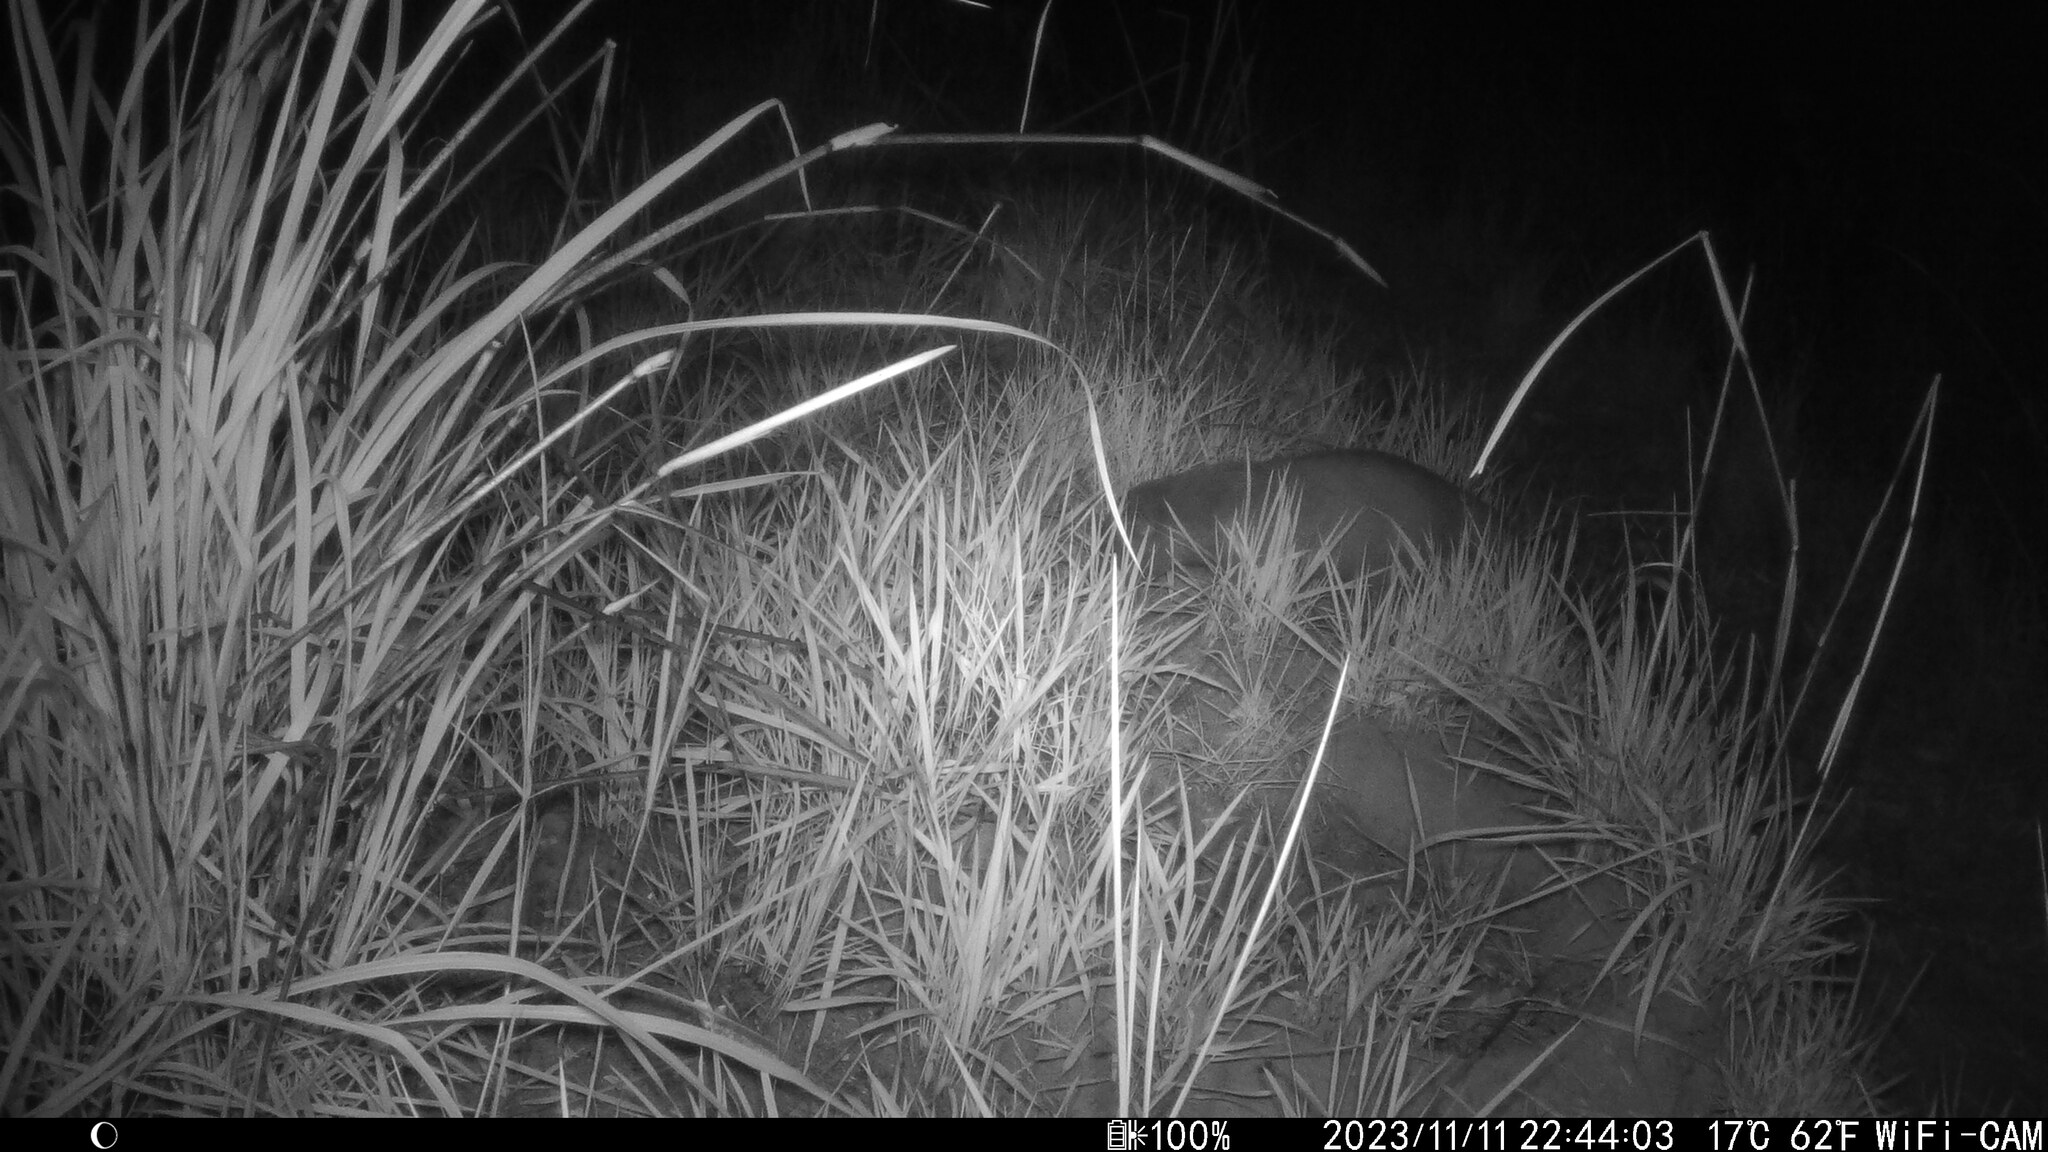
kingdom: Animalia
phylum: Chordata
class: Mammalia
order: Carnivora
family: Herpestidae
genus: Atilax
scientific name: Atilax paludinosus
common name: Marsh mongoose
